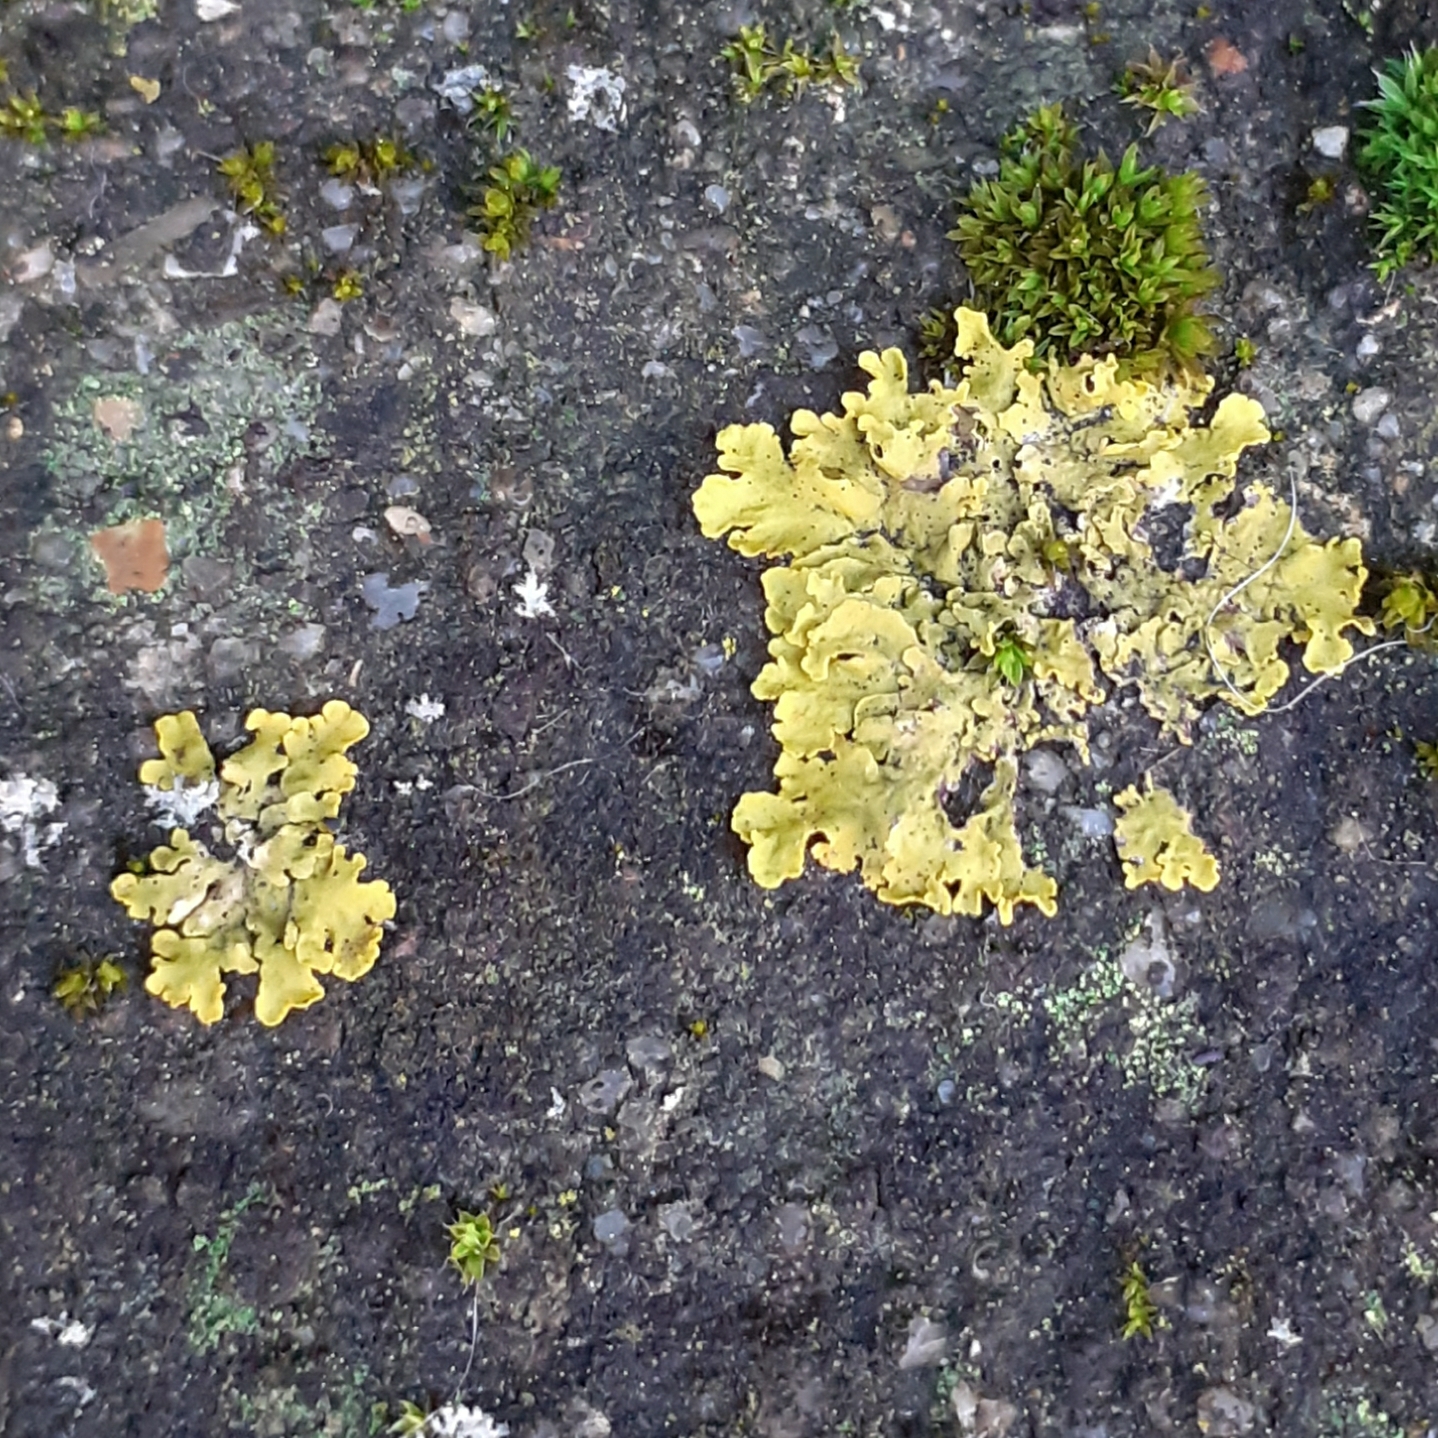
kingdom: Fungi
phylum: Ascomycota
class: Lecanoromycetes
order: Teloschistales
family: Teloschistaceae
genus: Xanthoria
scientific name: Xanthoria parietina
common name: Common orange lichen
